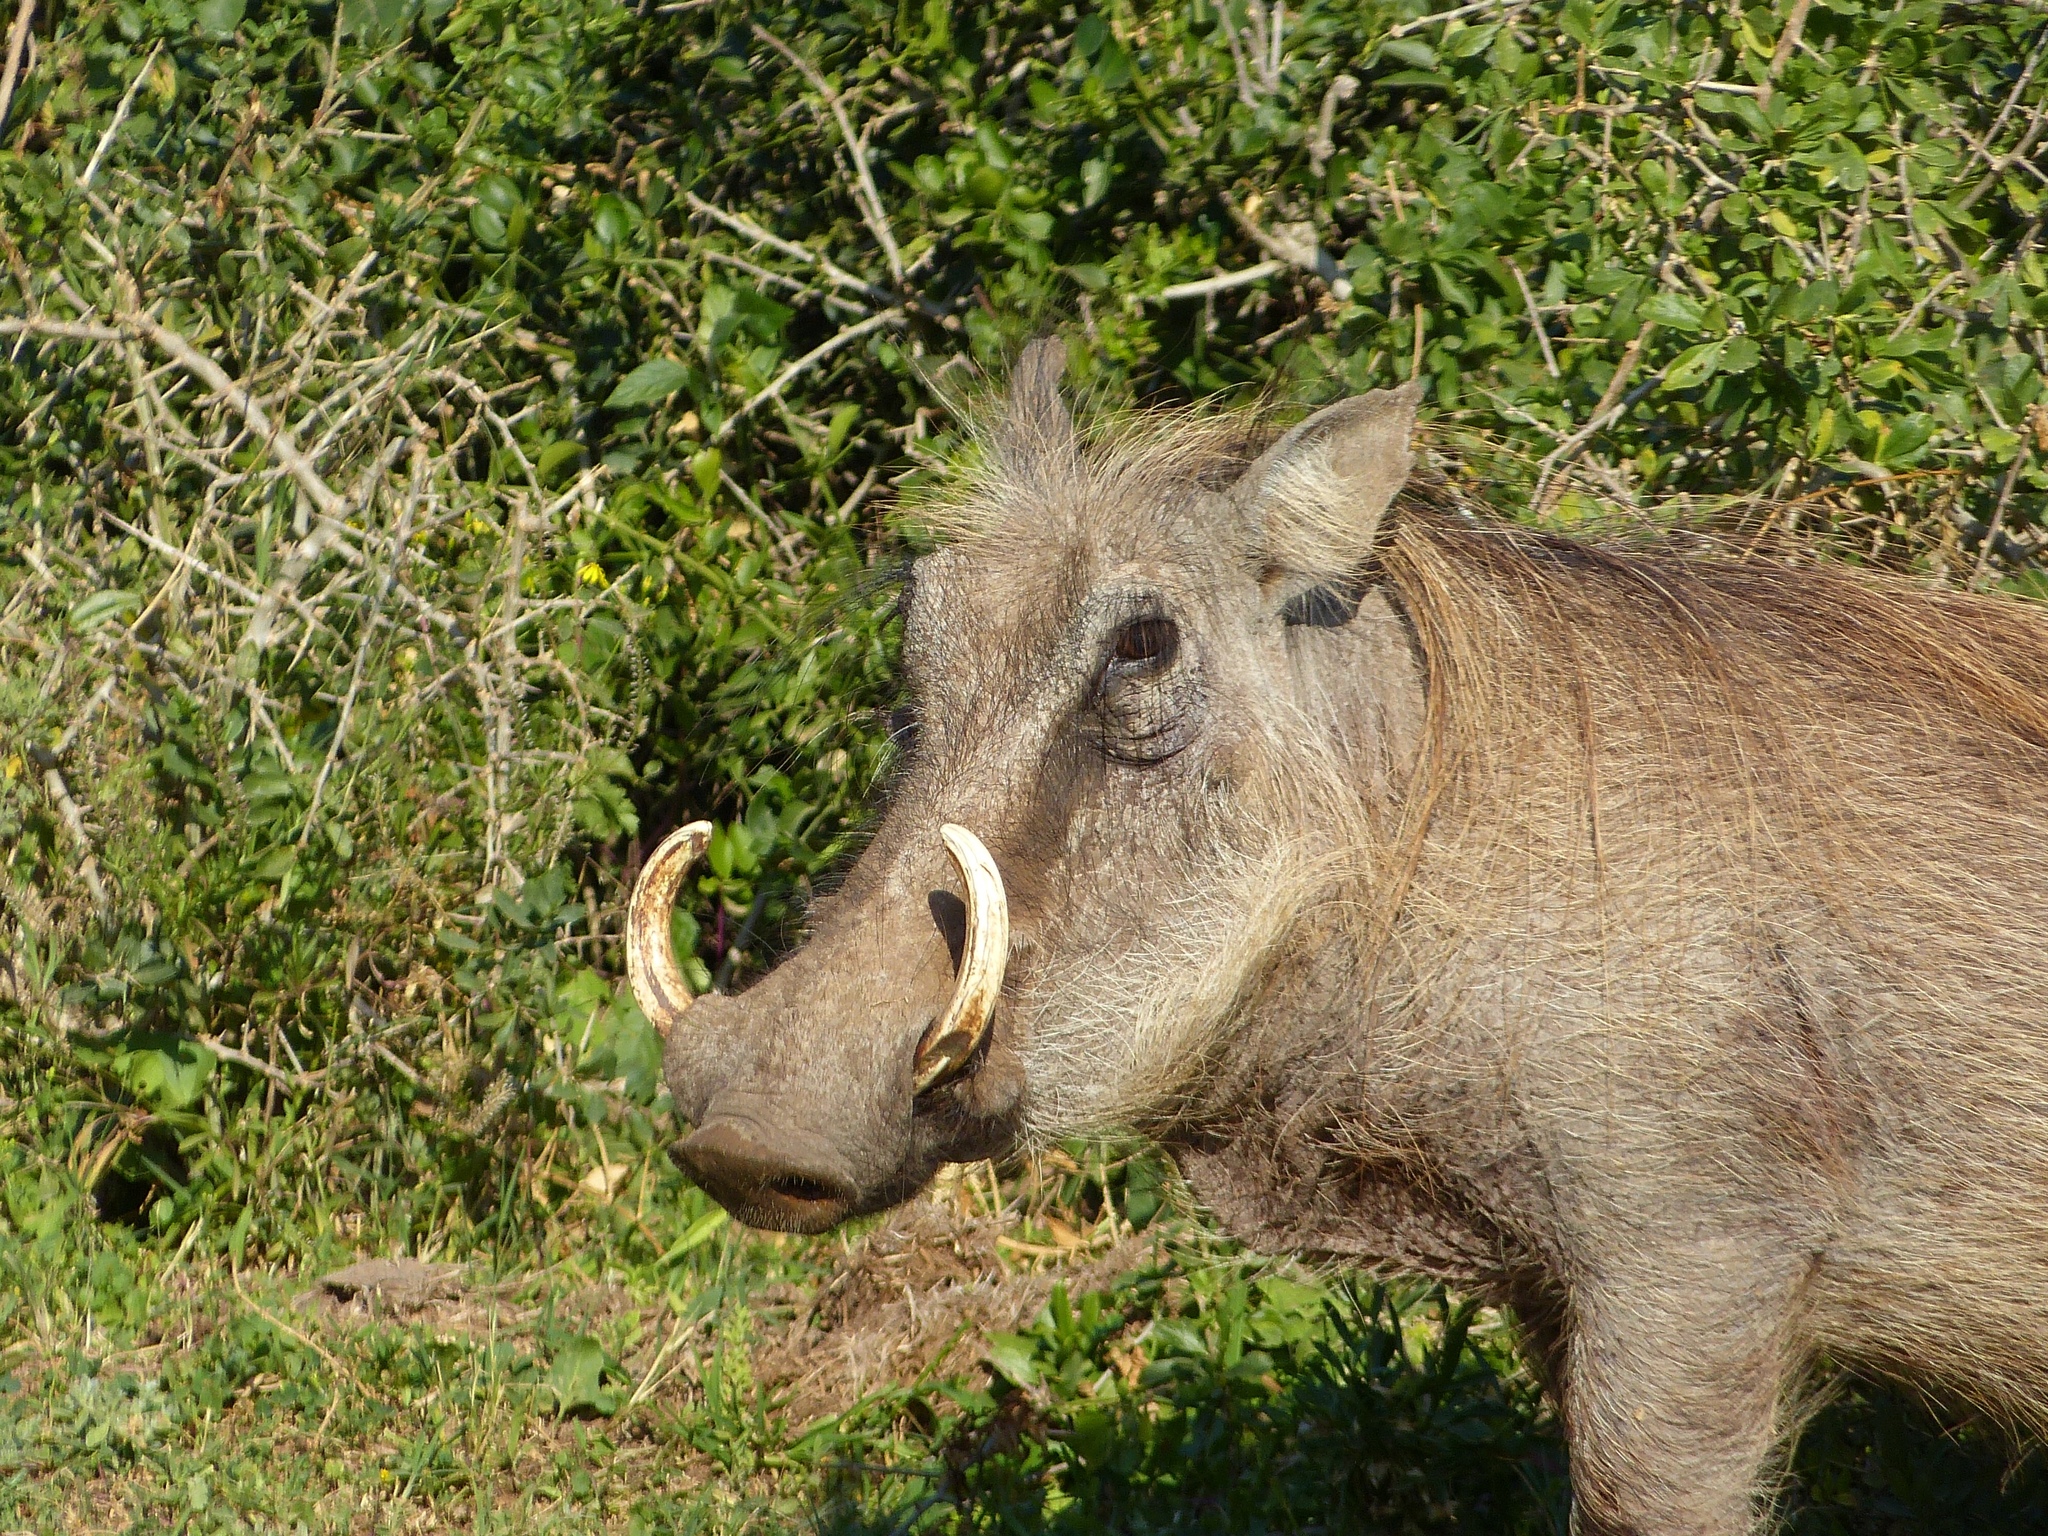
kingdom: Animalia
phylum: Chordata
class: Mammalia
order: Artiodactyla
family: Suidae
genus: Phacochoerus
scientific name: Phacochoerus africanus
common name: Common warthog
